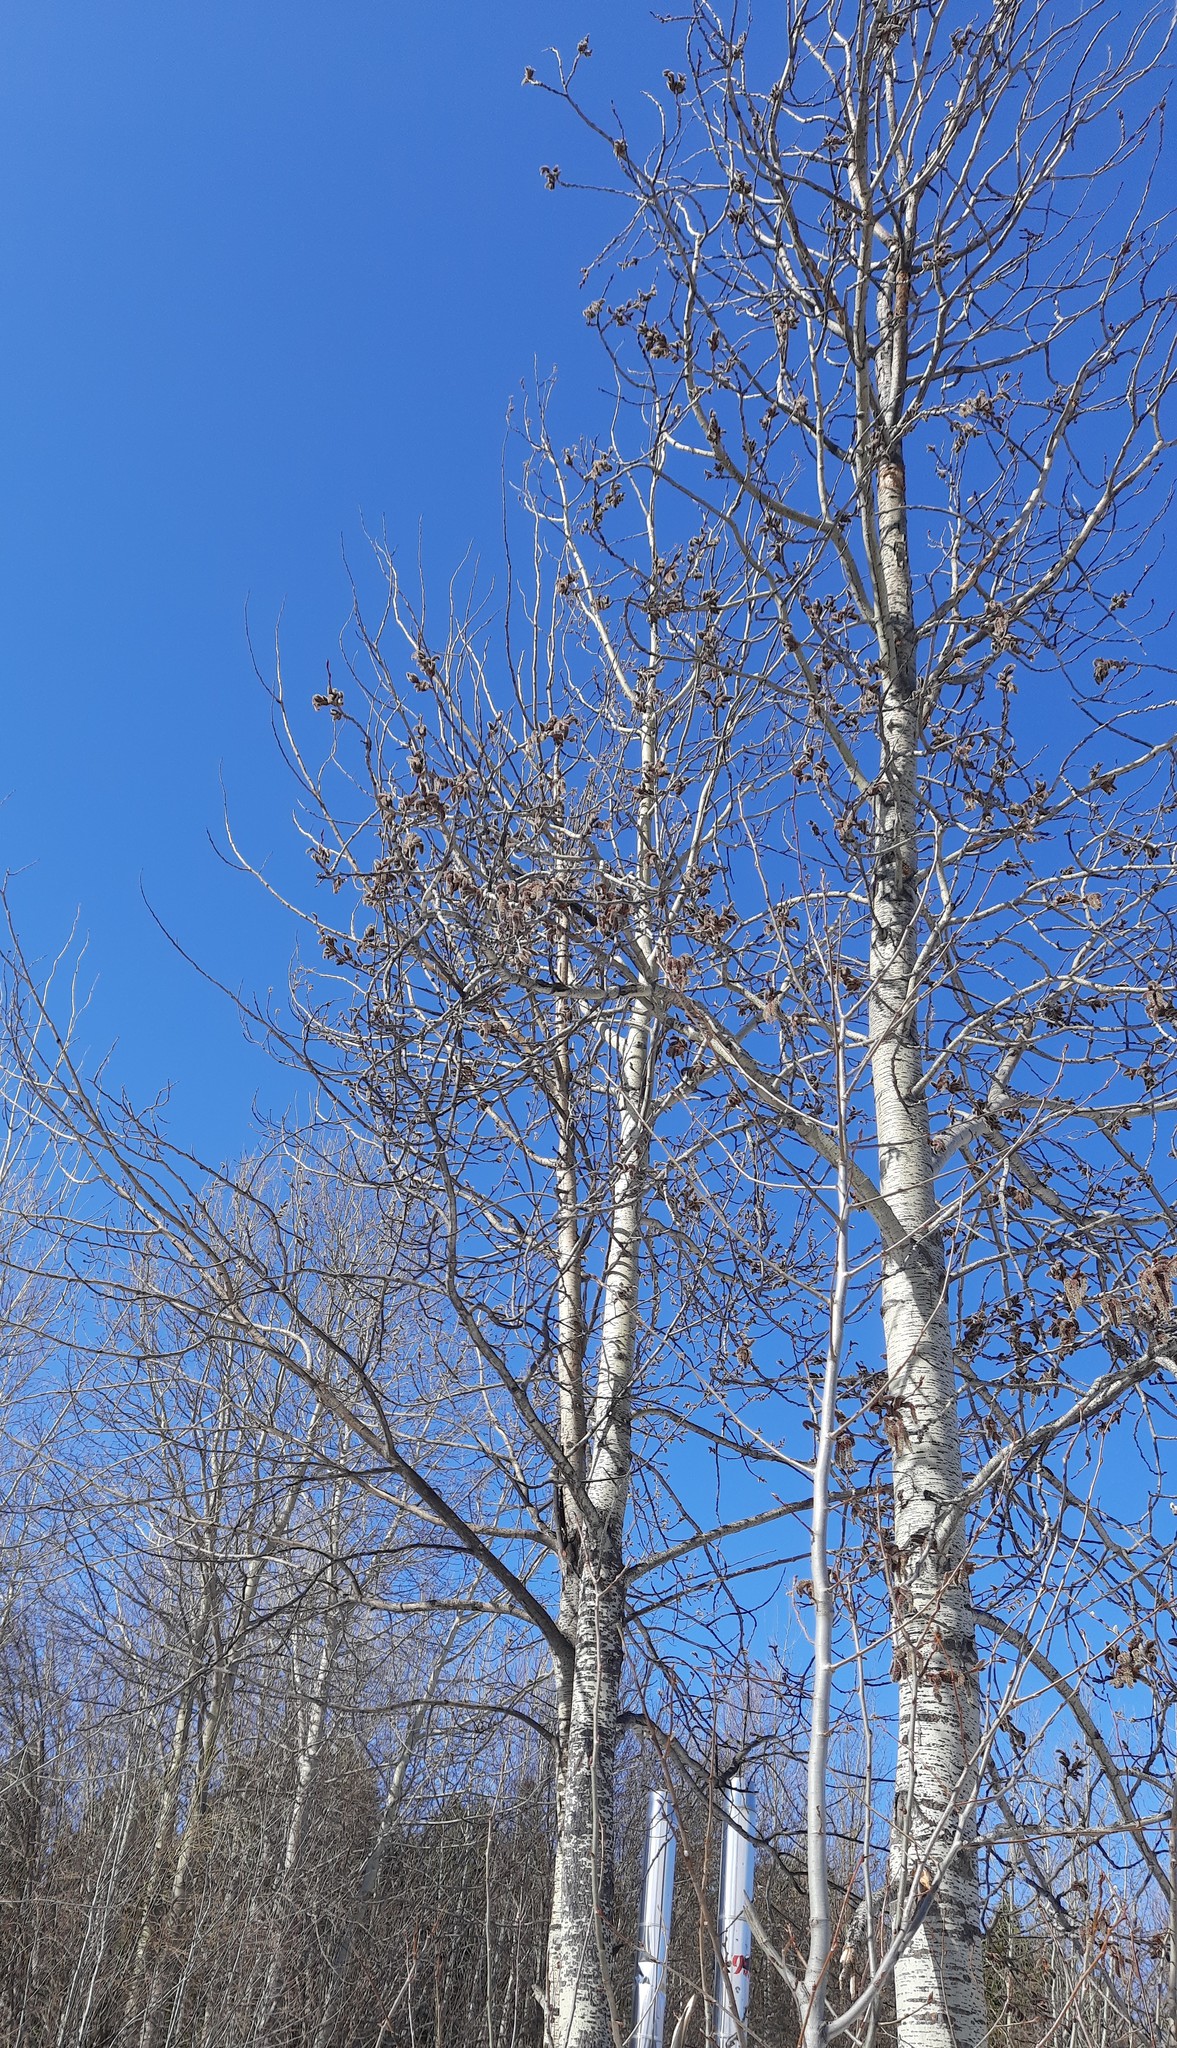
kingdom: Plantae
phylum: Tracheophyta
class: Magnoliopsida
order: Malpighiales
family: Salicaceae
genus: Populus
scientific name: Populus tremula
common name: European aspen
